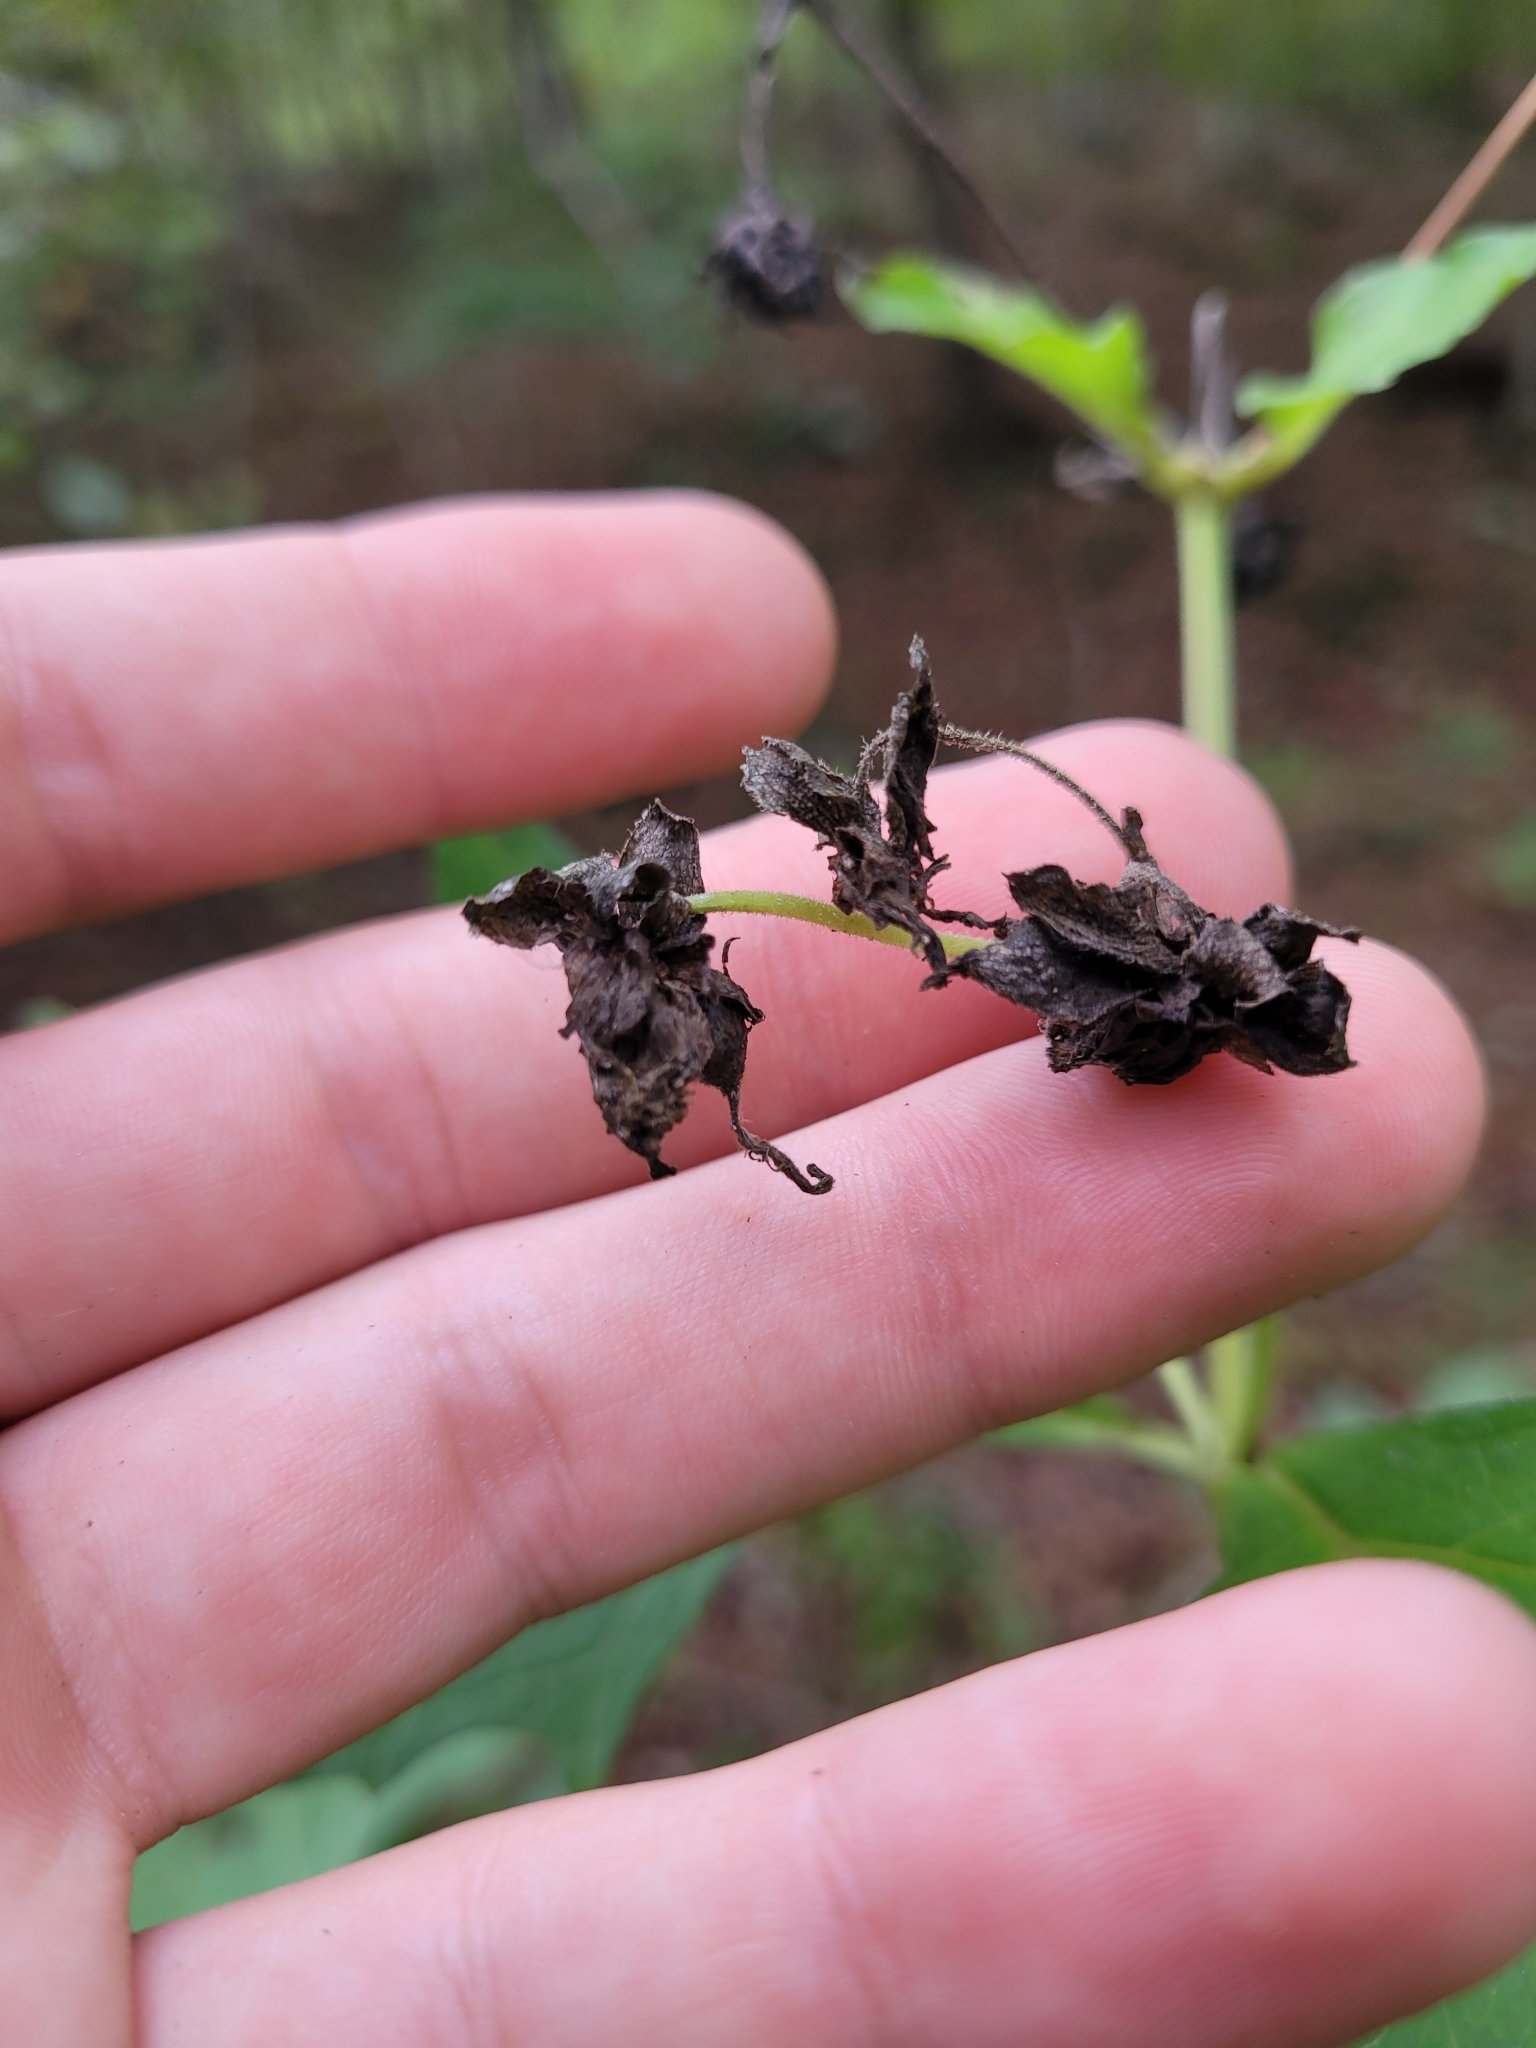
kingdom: Plantae
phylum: Tracheophyta
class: Magnoliopsida
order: Asterales
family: Asteraceae
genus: Smallanthus
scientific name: Smallanthus uvedalia
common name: Bear's-foot
